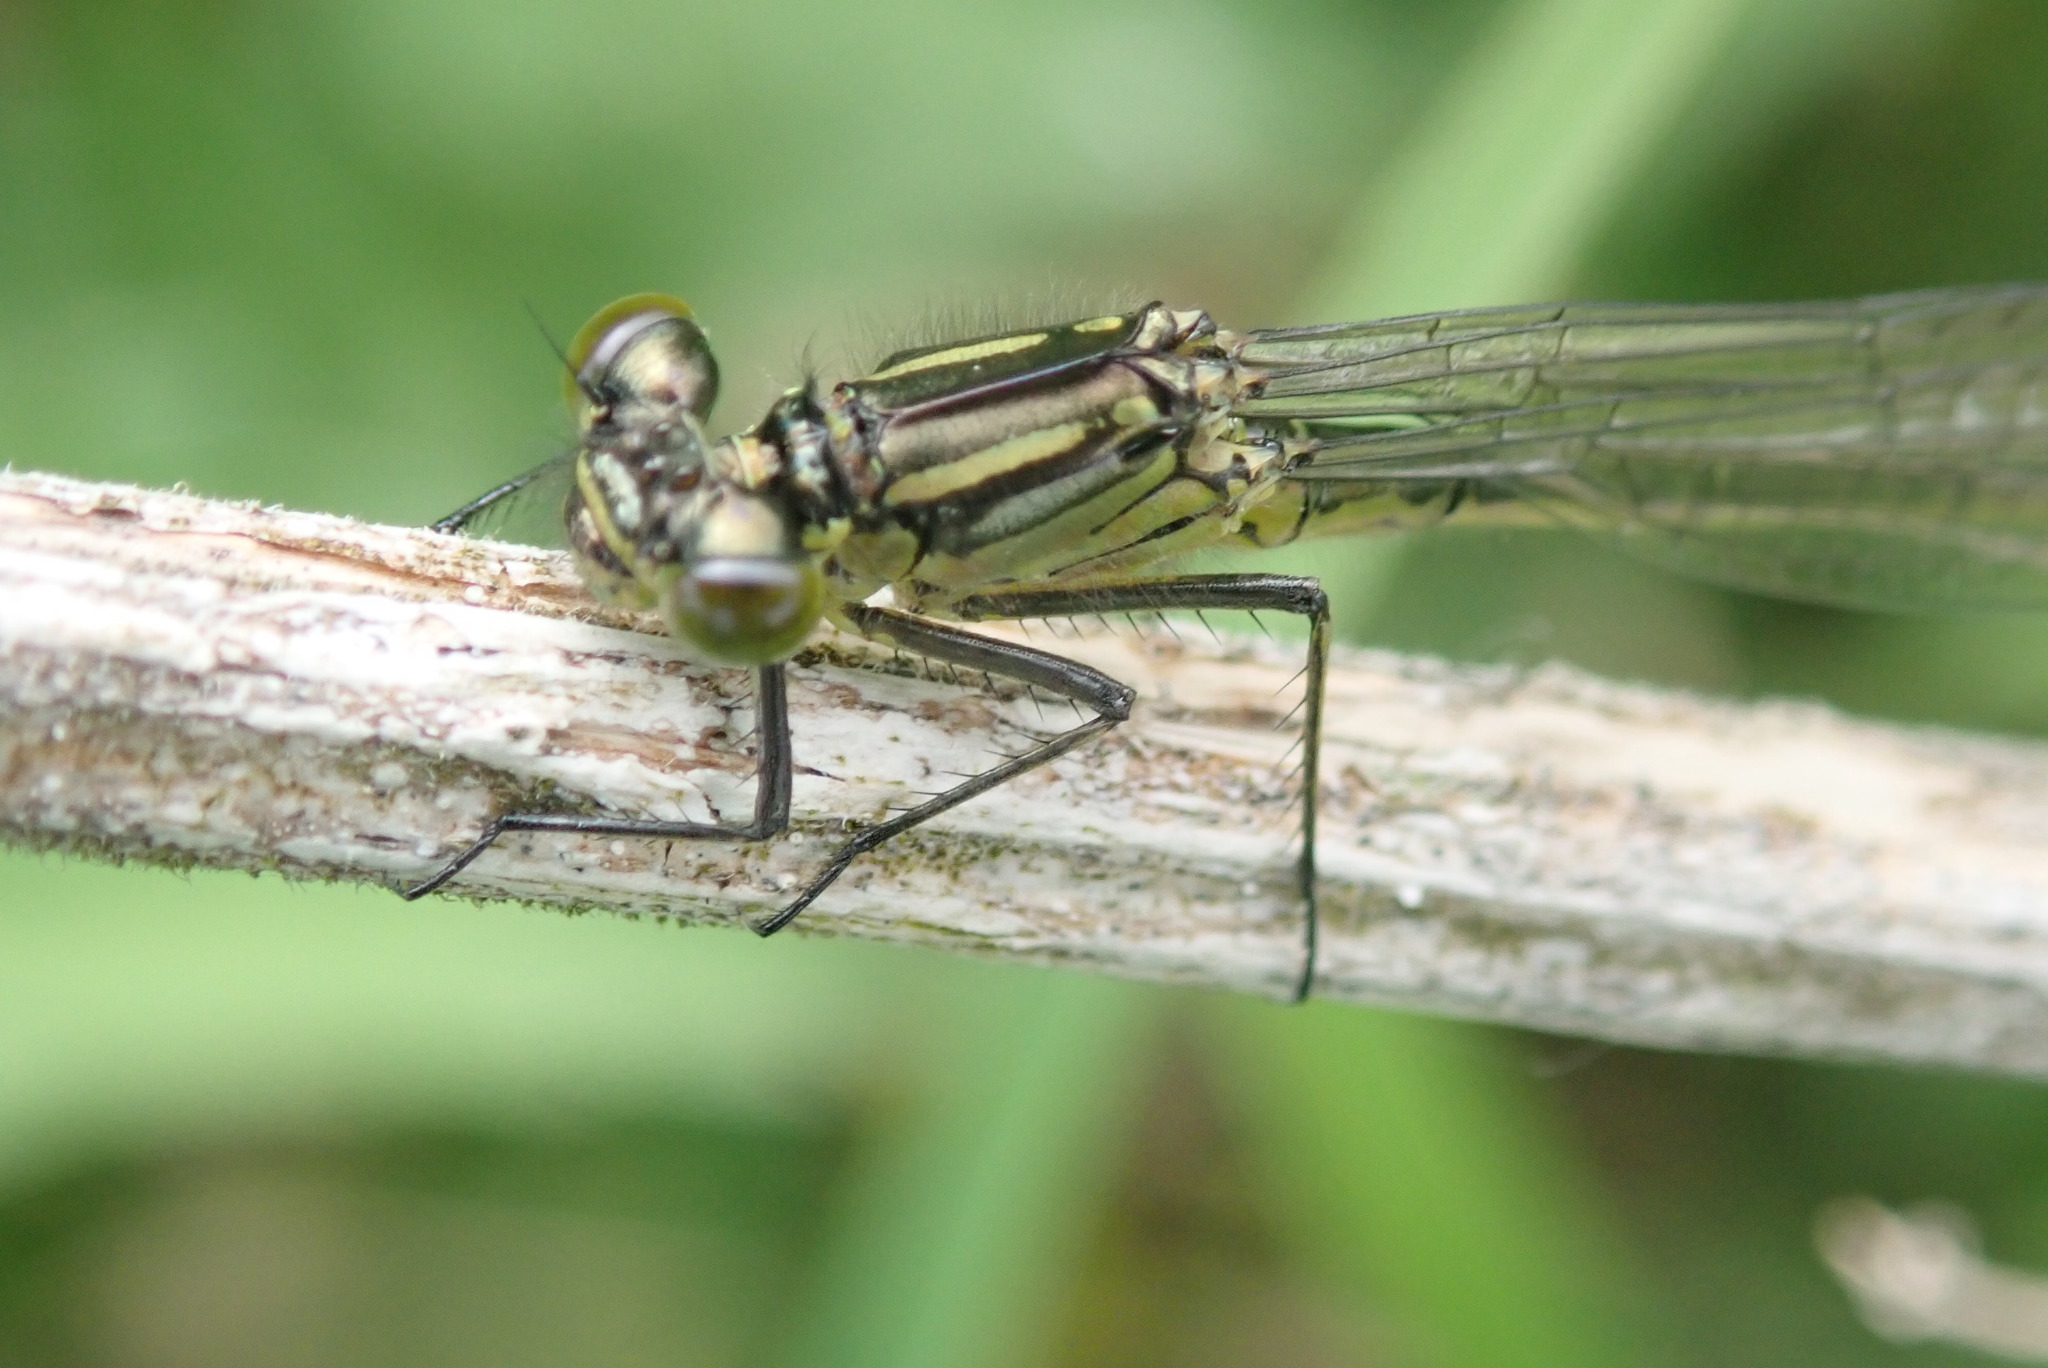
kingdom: Animalia
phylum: Arthropoda
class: Insecta
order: Odonata
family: Coenagrionidae
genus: Erythromma
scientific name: Erythromma najas
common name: Red-eyed damselfly
